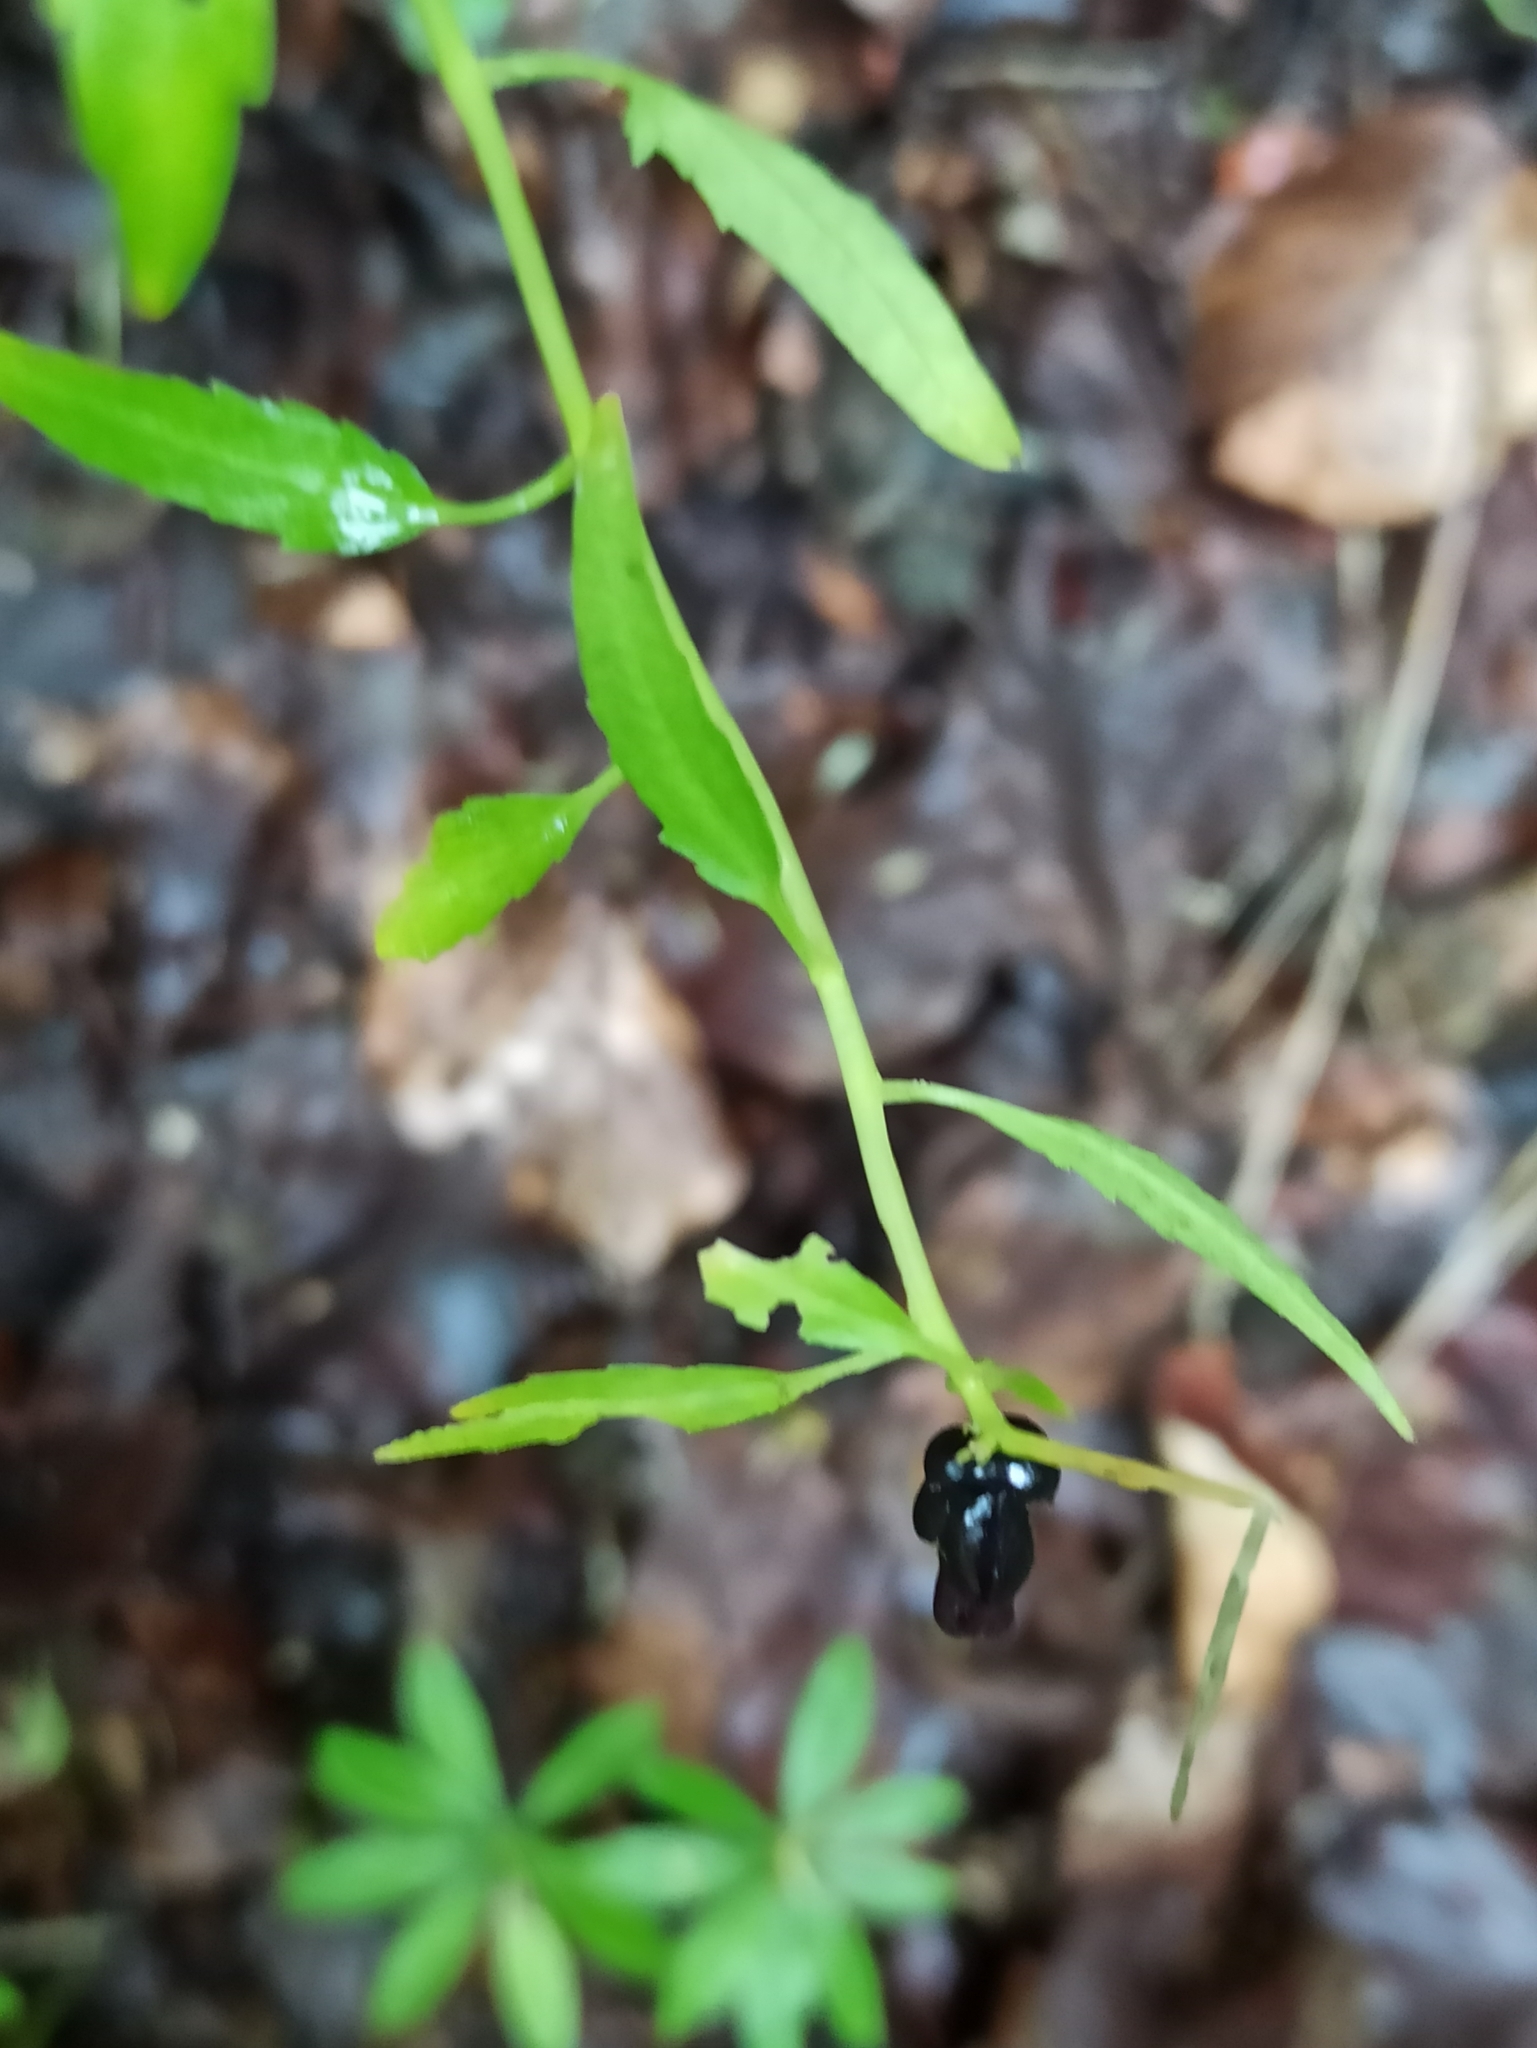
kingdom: Plantae
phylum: Tracheophyta
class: Magnoliopsida
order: Brassicales
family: Brassicaceae
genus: Cardamine
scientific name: Cardamine bulbifera
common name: Coralroot bittercress
